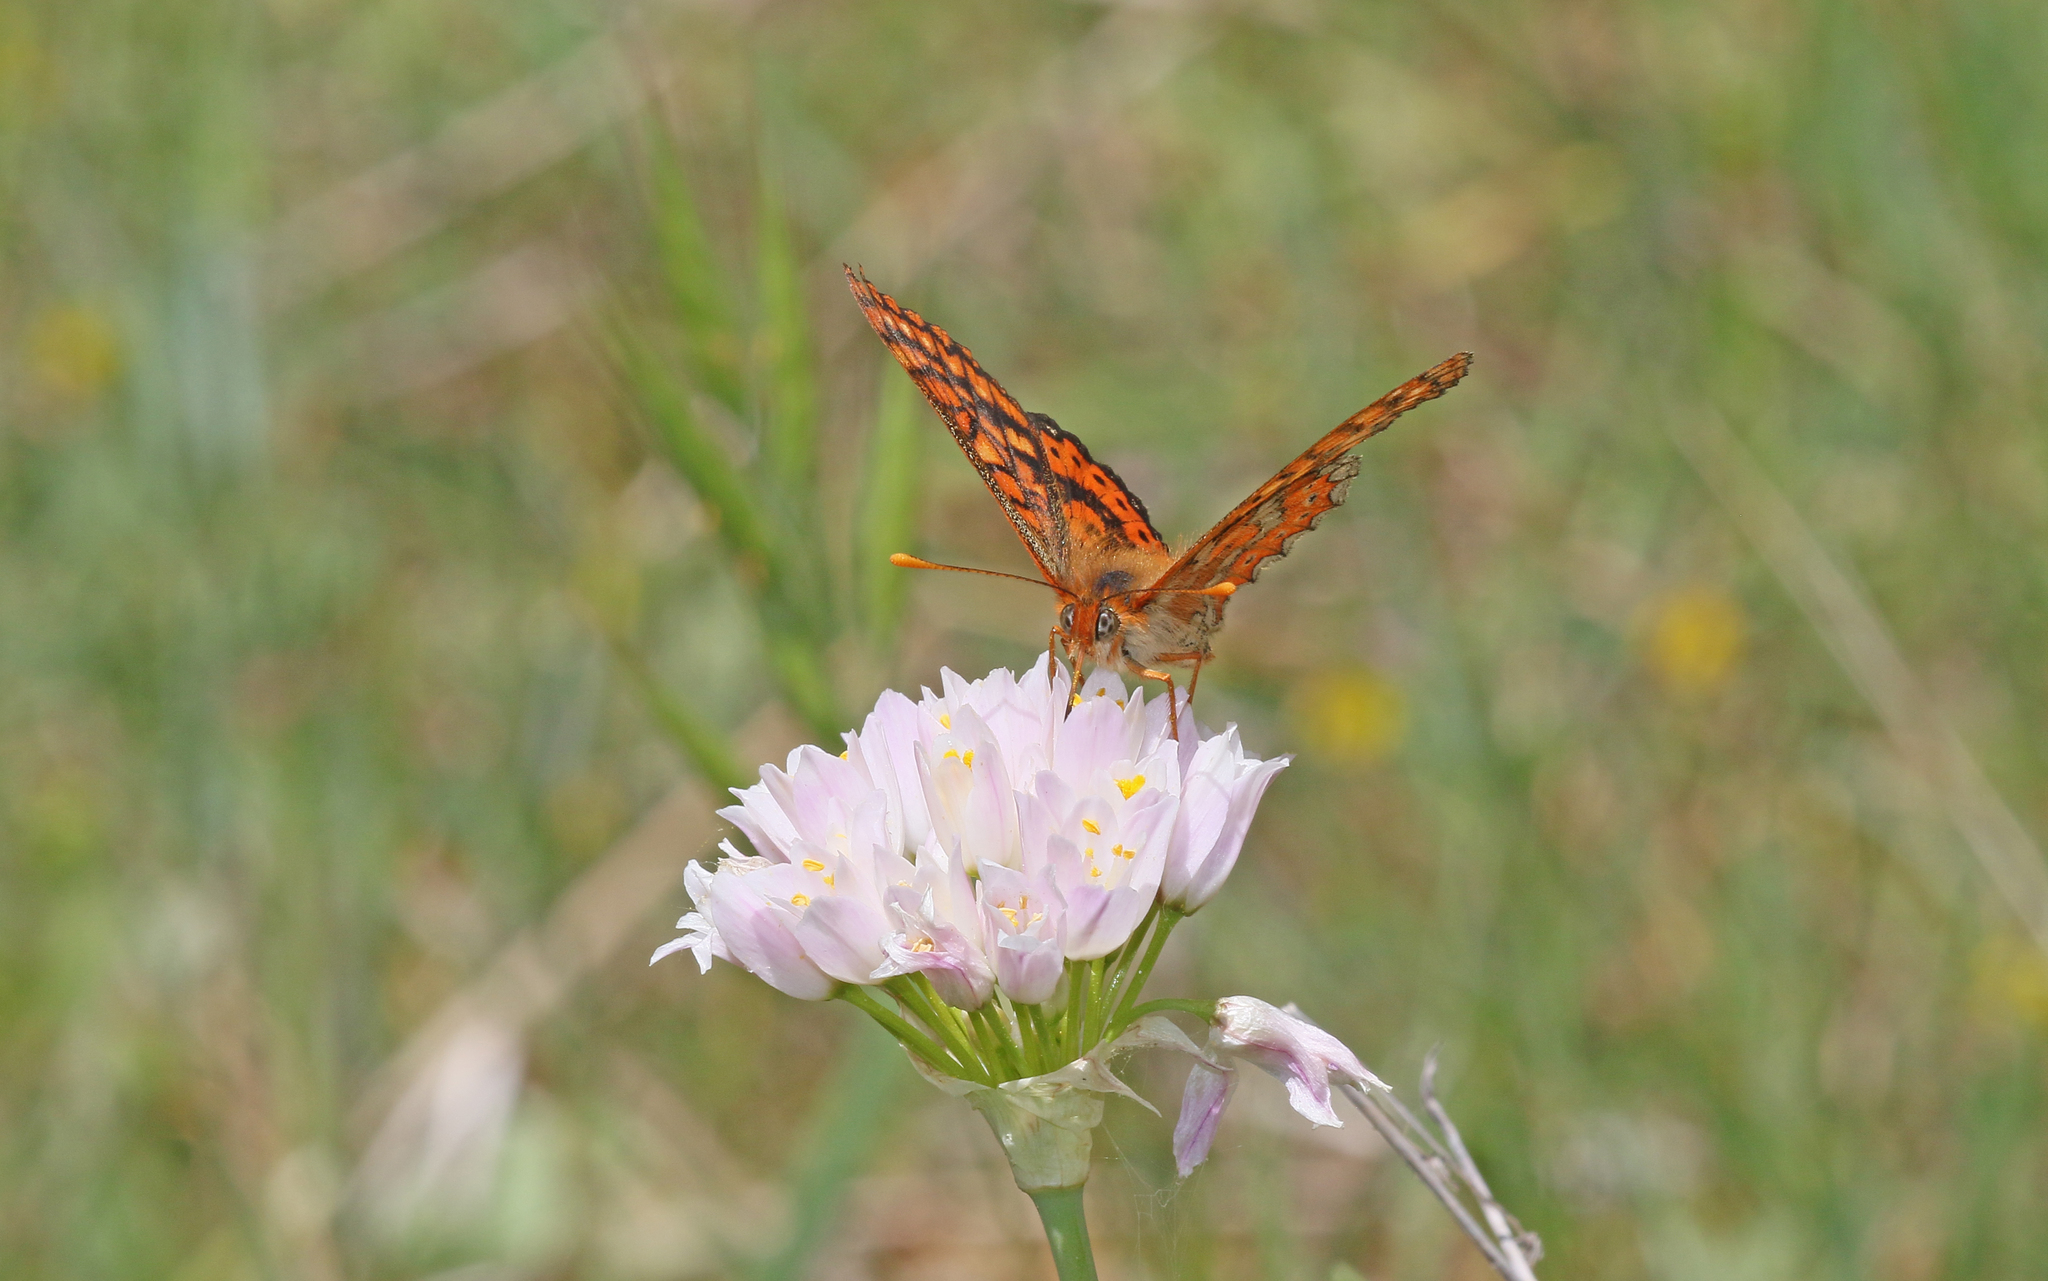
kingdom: Animalia
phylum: Arthropoda
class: Insecta
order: Lepidoptera
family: Nymphalidae
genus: Euphydryas
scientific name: Euphydryas aurinia
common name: Marsh fritillary
